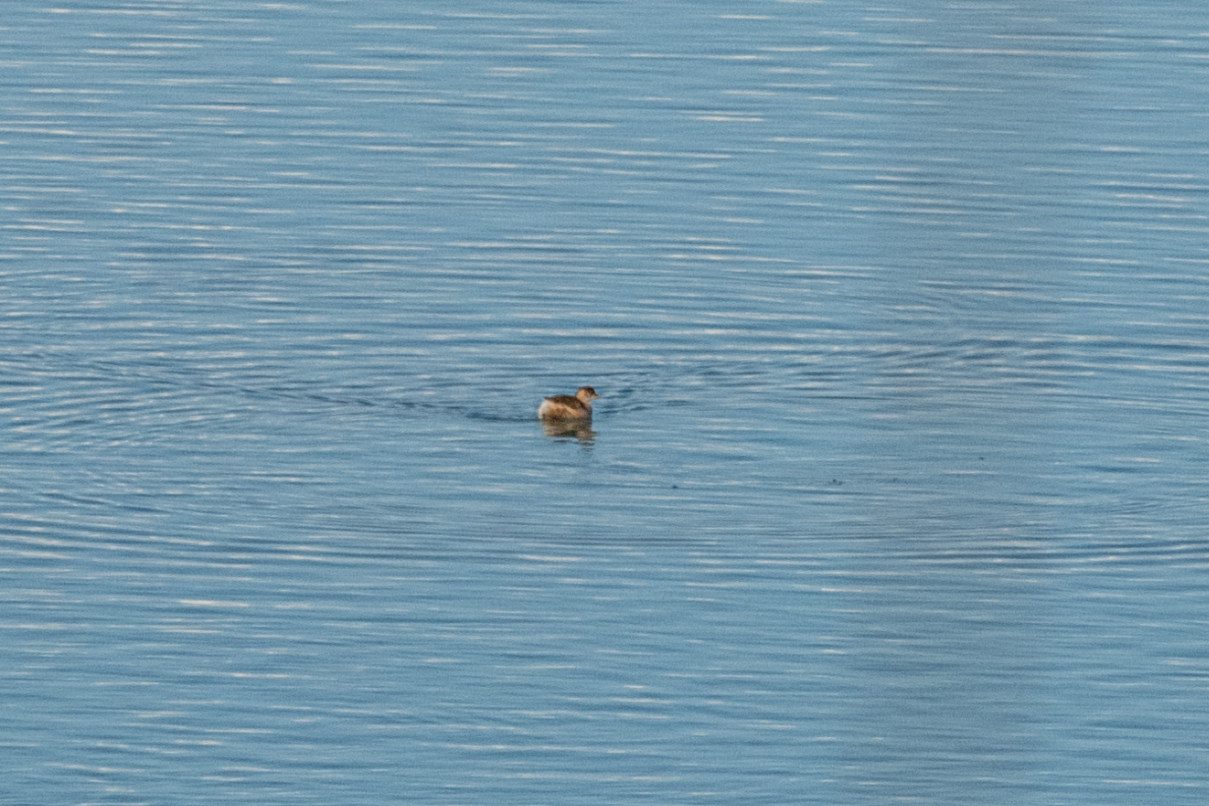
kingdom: Animalia
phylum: Chordata
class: Aves
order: Podicipediformes
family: Podicipedidae
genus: Tachybaptus
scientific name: Tachybaptus ruficollis
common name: Little grebe
